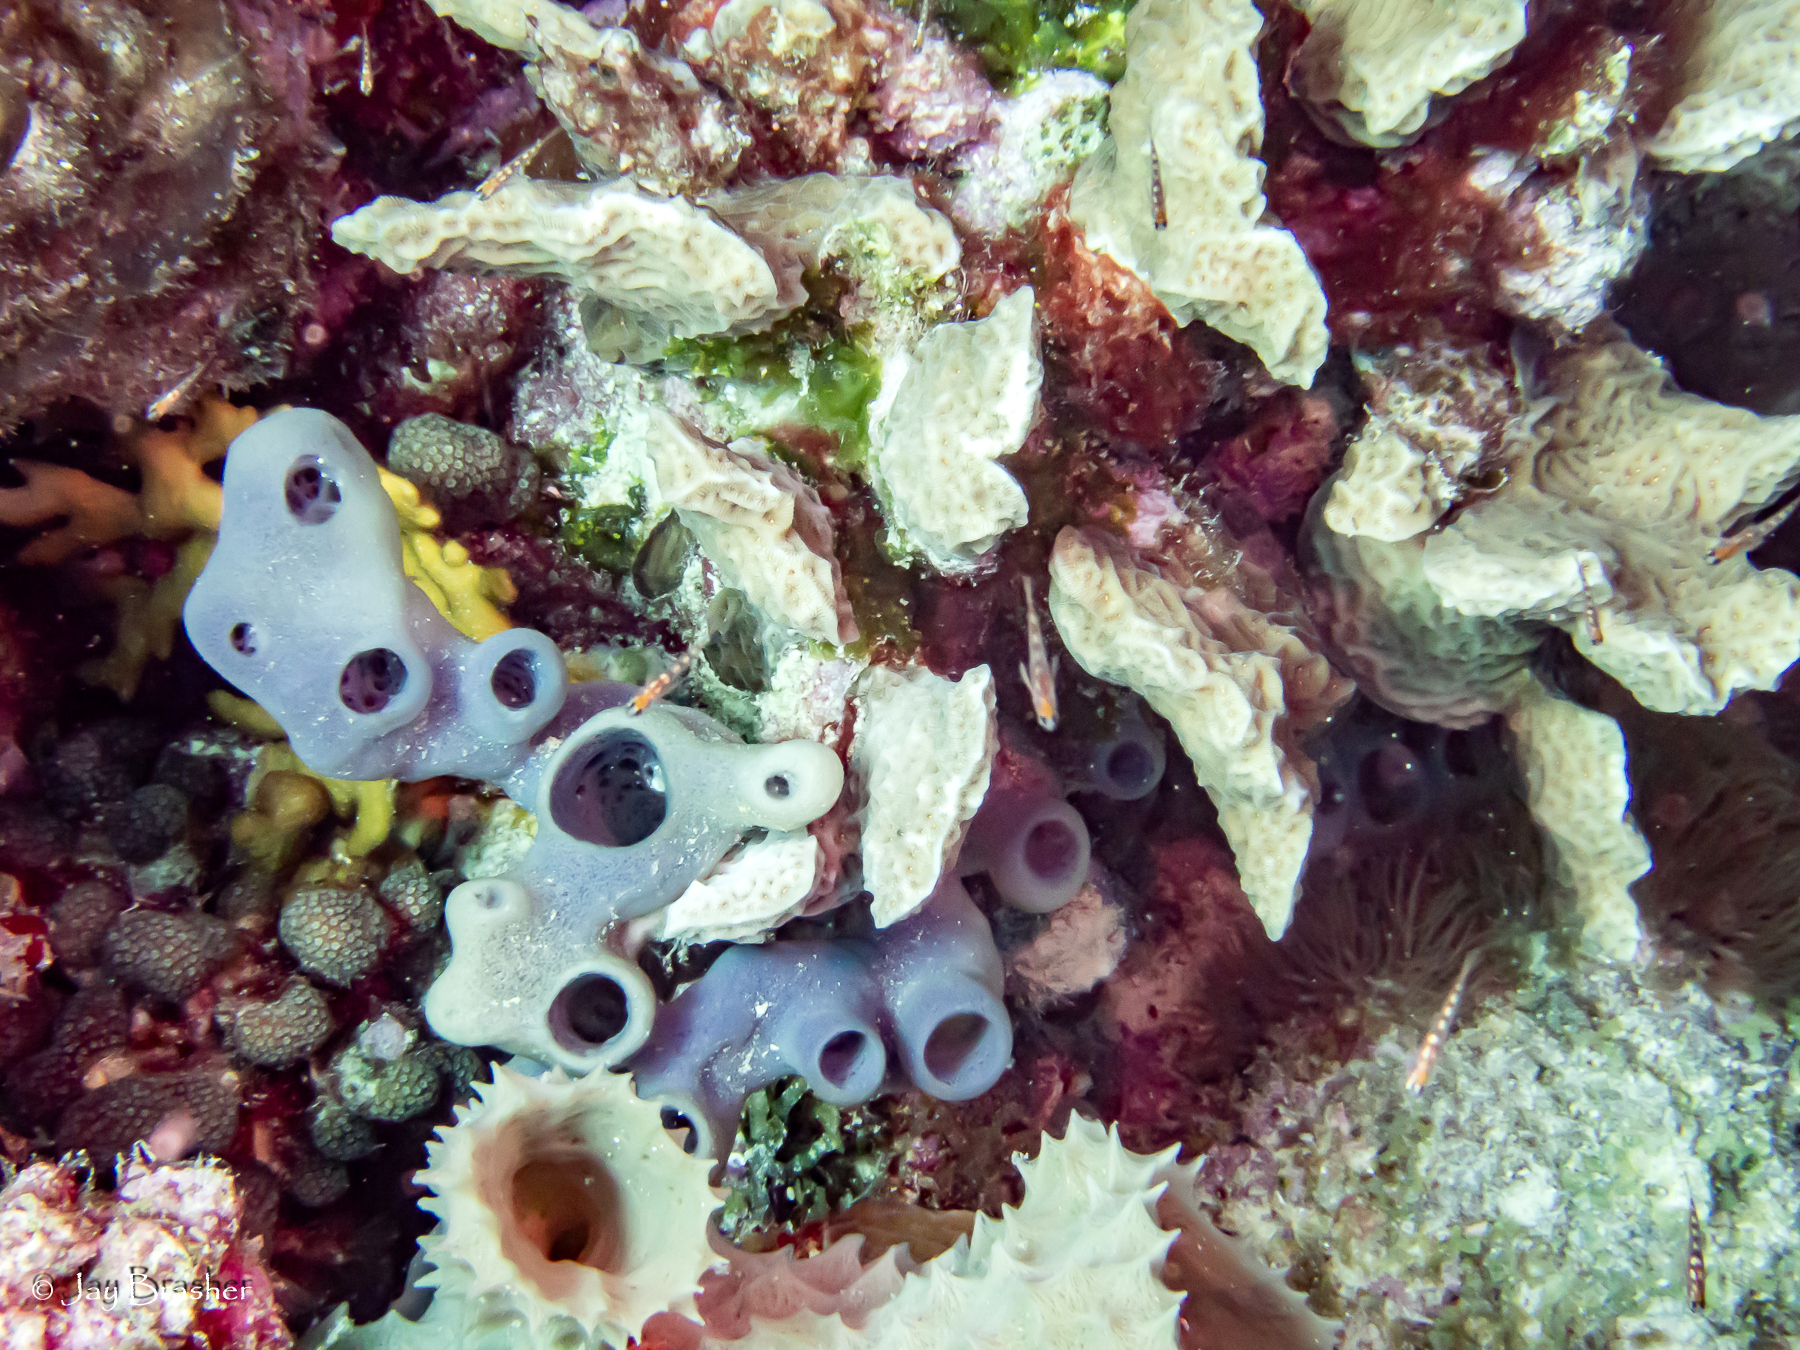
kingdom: Animalia
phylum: Cnidaria
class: Anthozoa
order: Scleractinia
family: Agariciidae
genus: Agaricia
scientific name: Agaricia agaricites
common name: Lettuce coral
